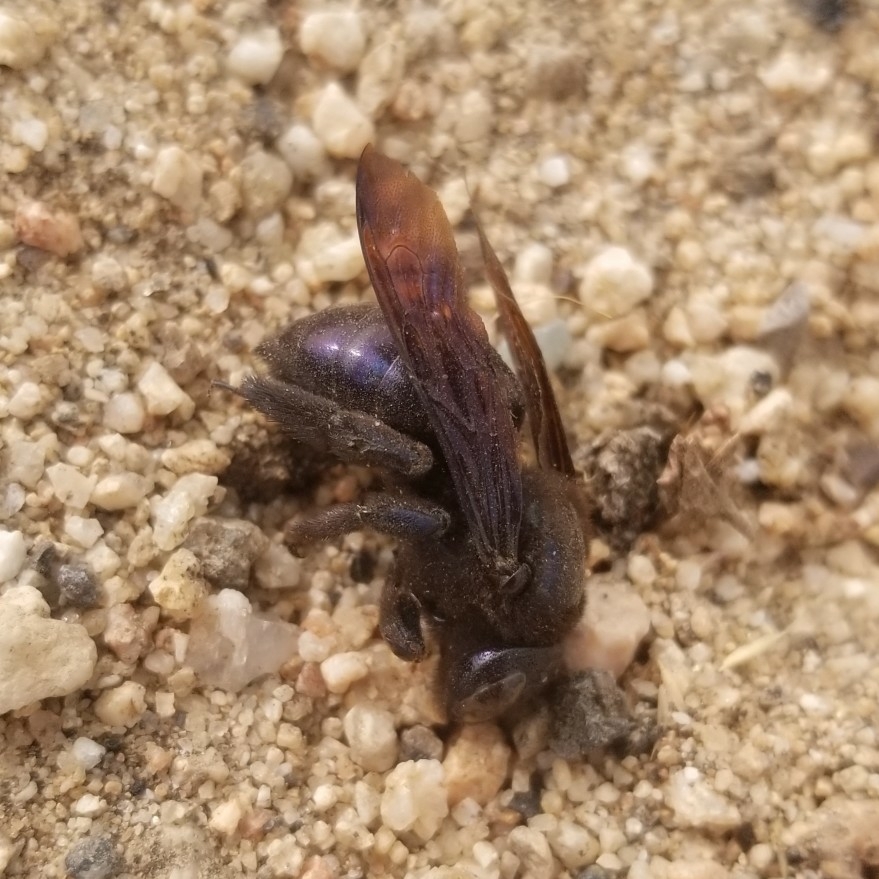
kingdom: Animalia
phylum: Arthropoda
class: Insecta
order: Hymenoptera
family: Apidae
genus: Xylocopa
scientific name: Xylocopa californica
